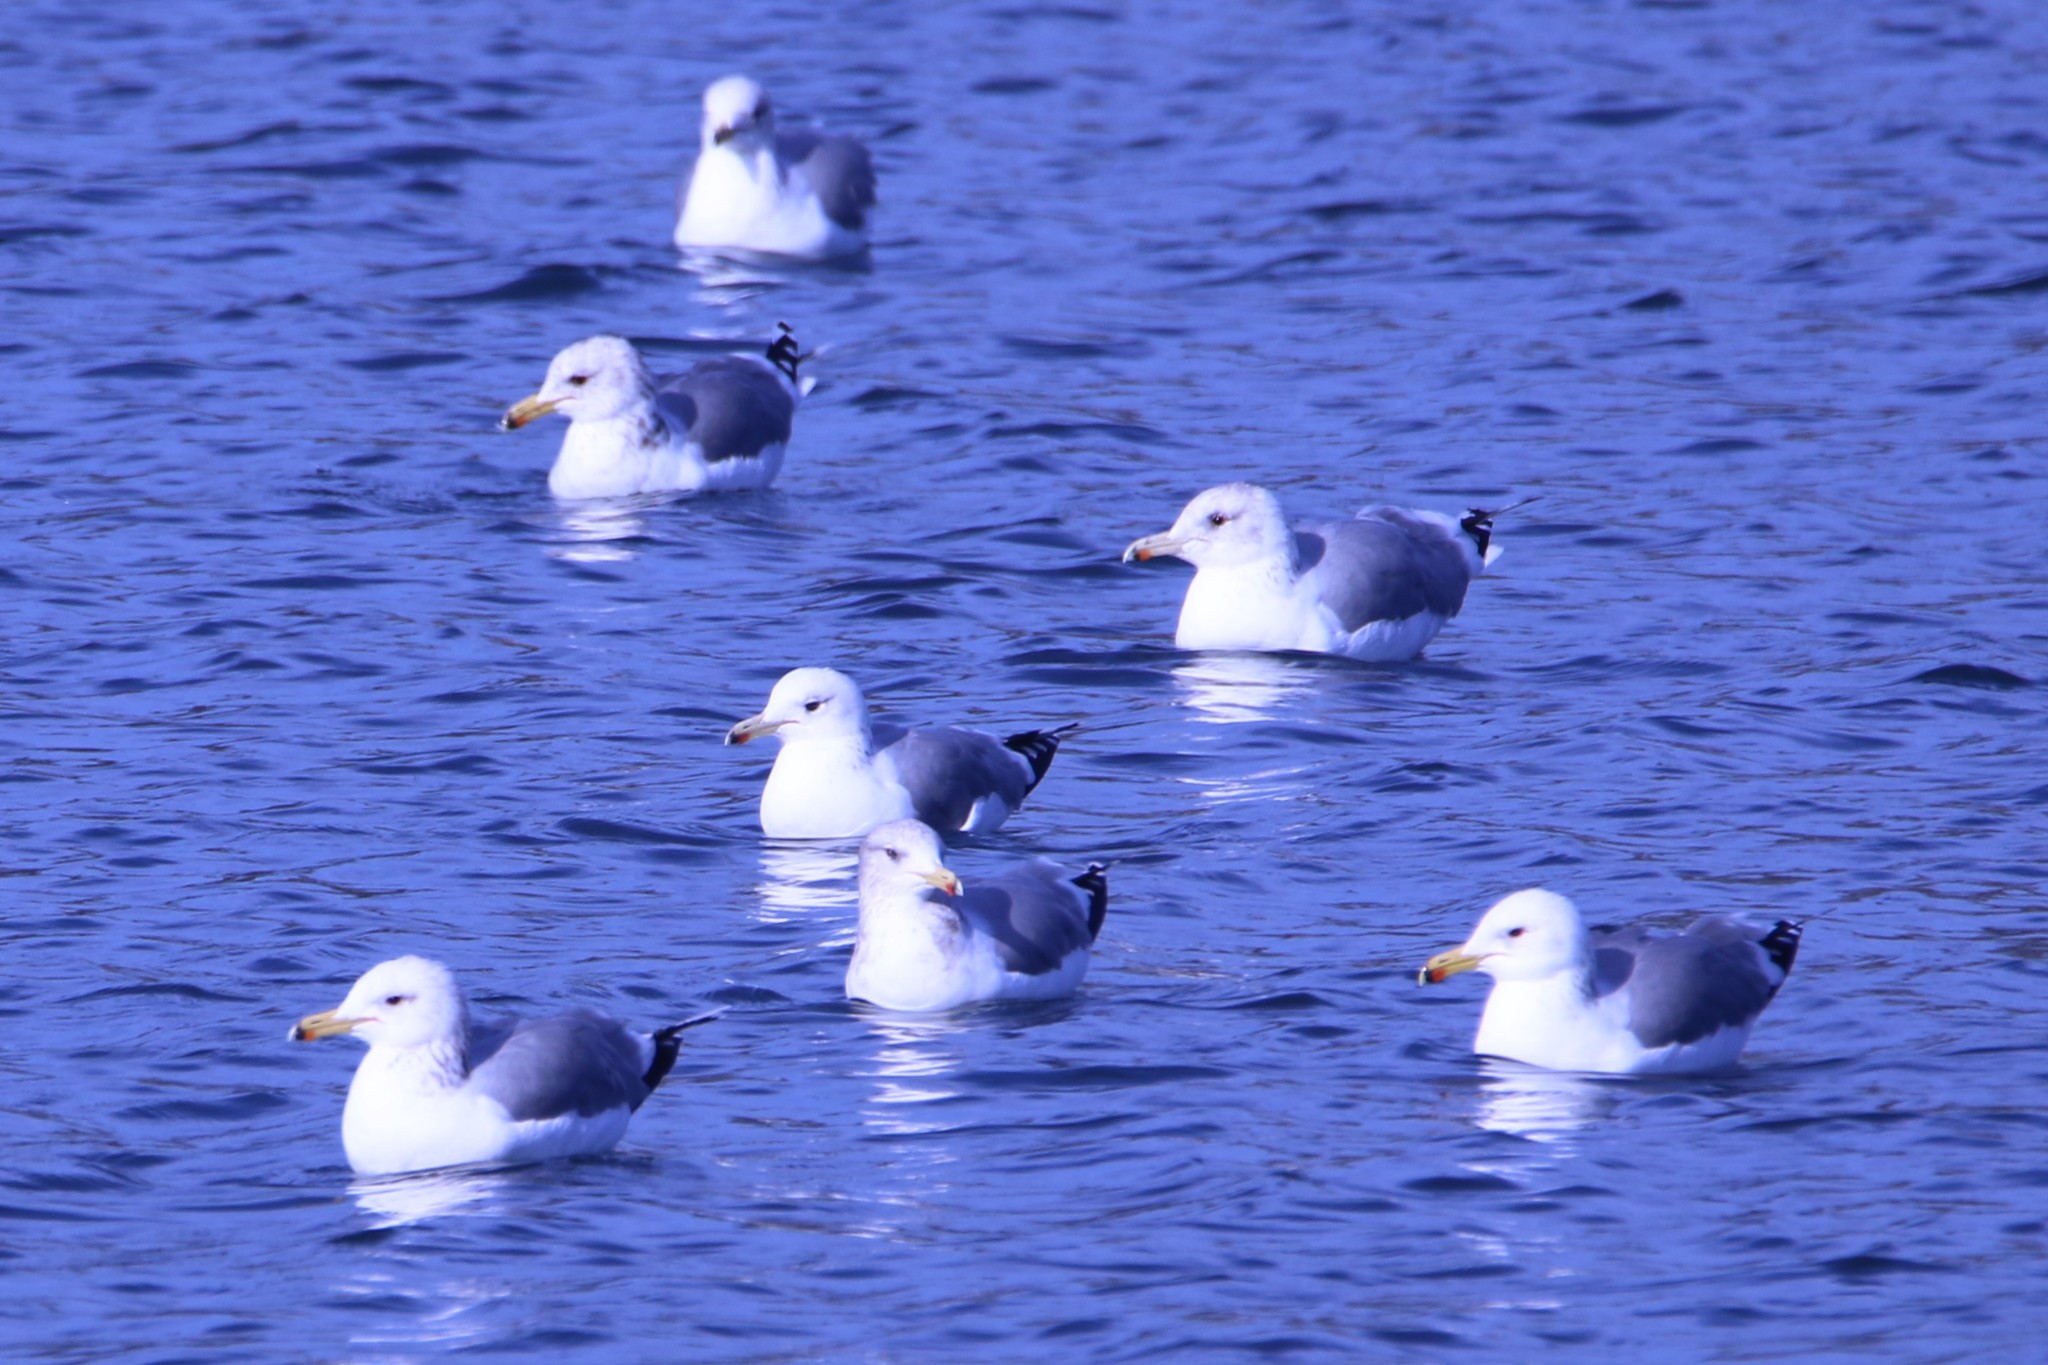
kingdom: Animalia
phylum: Chordata
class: Aves
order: Charadriiformes
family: Laridae
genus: Larus
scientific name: Larus californicus
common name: California gull
